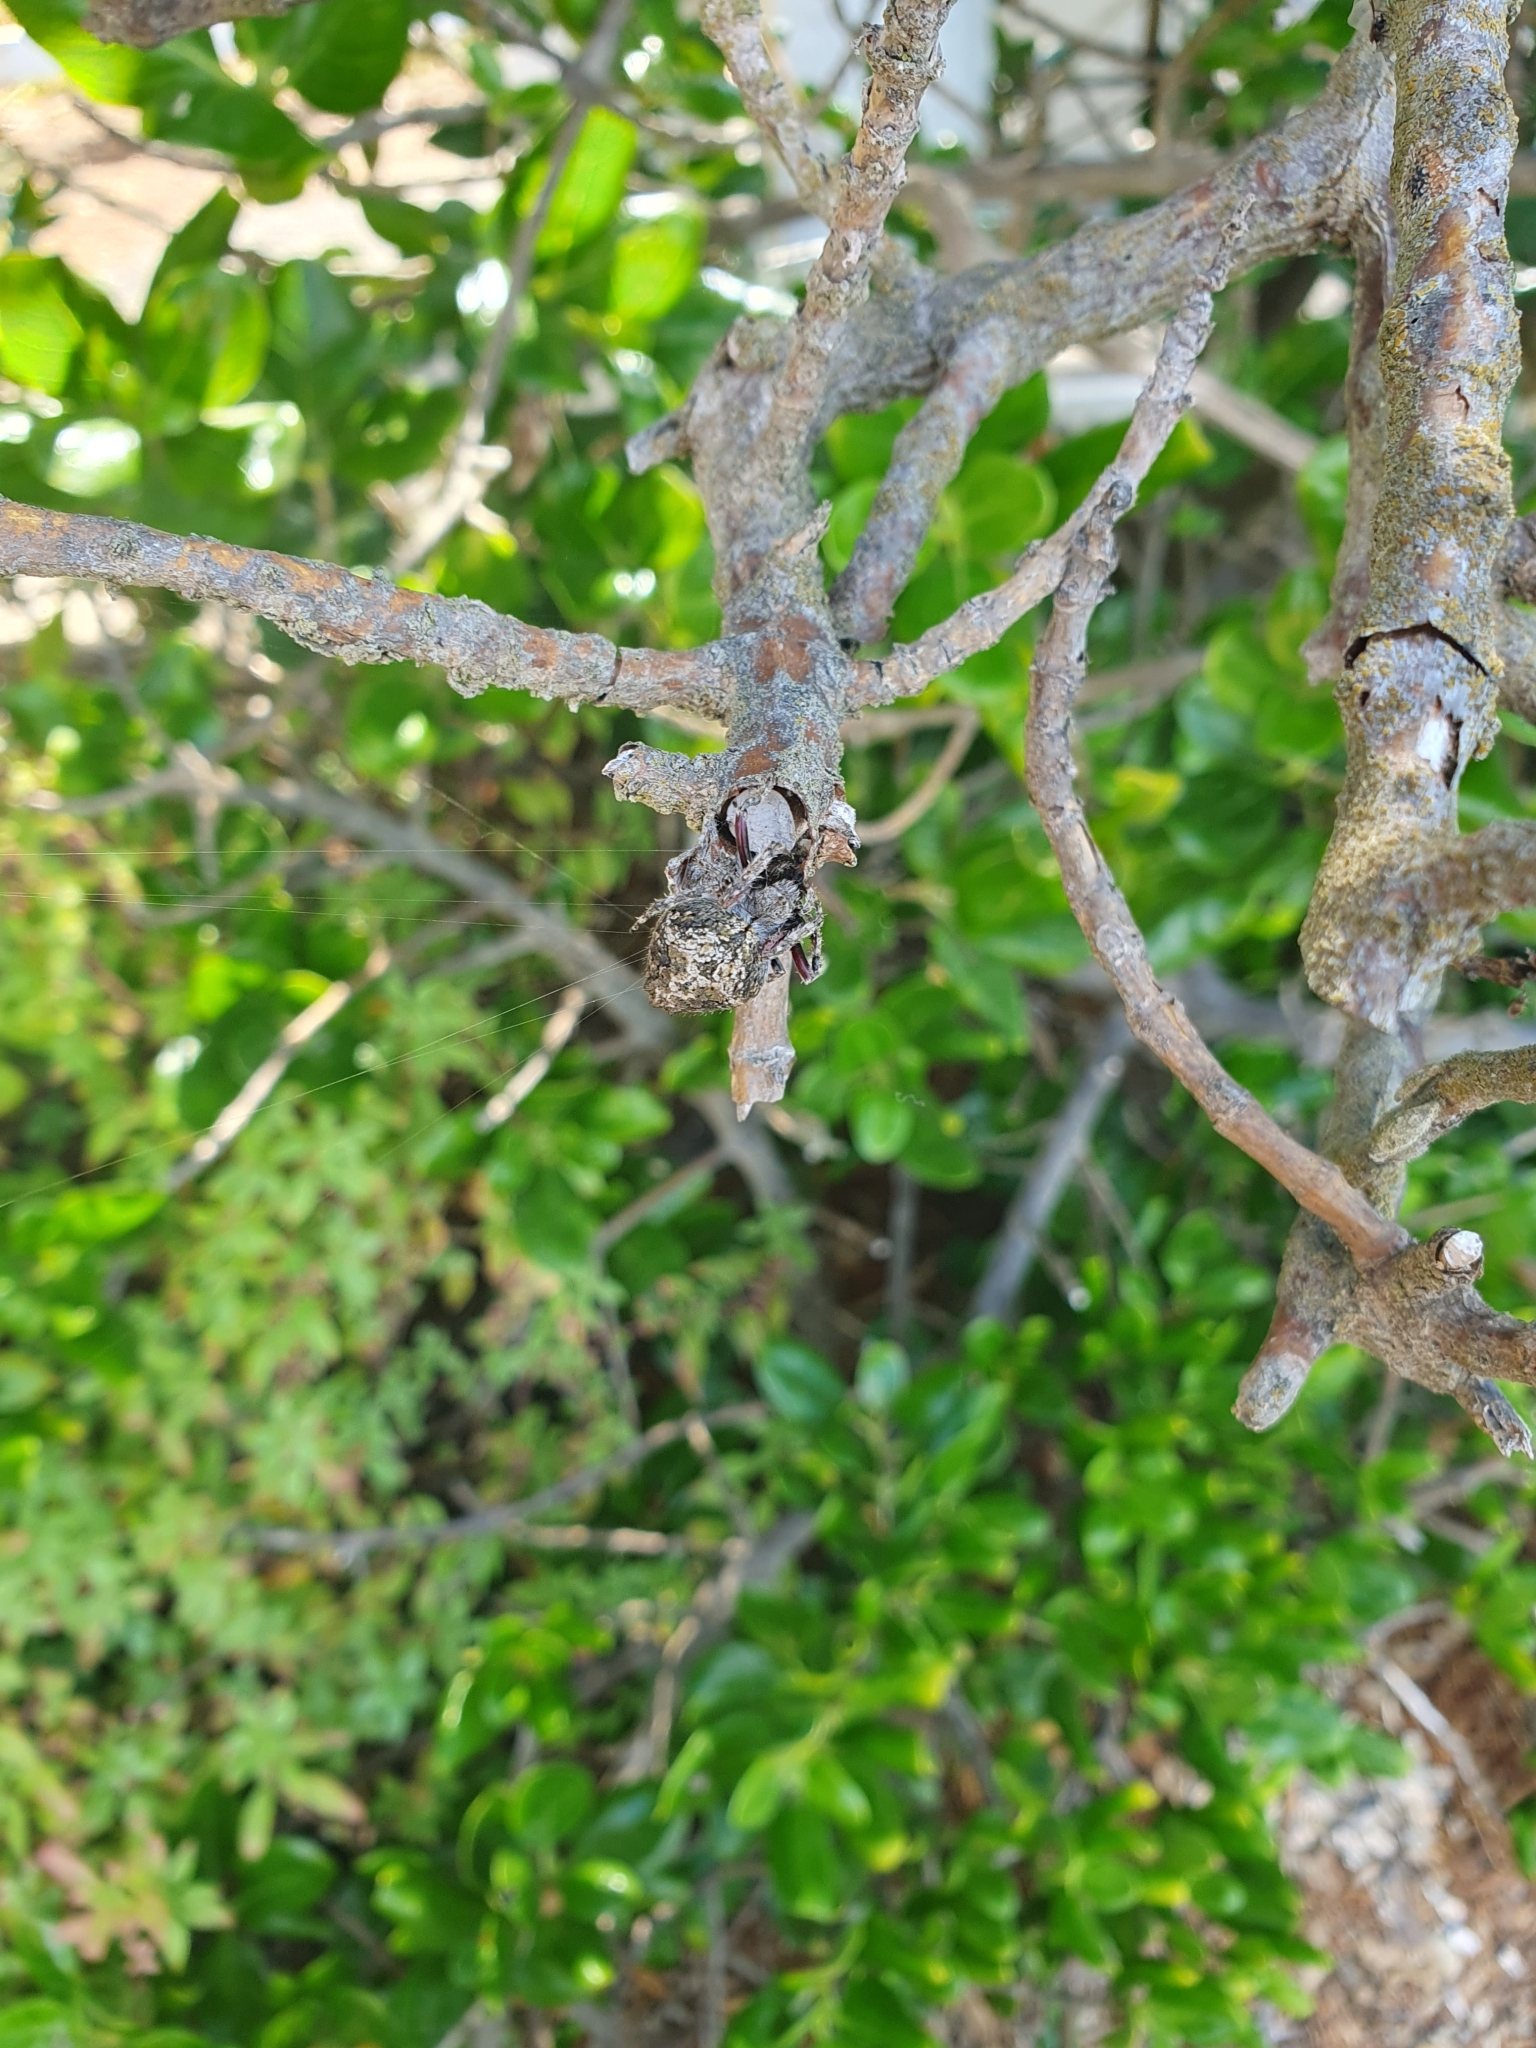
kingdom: Animalia
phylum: Arthropoda
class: Arachnida
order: Araneae
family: Araneidae
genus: Eriophora
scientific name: Eriophora pustulosa
